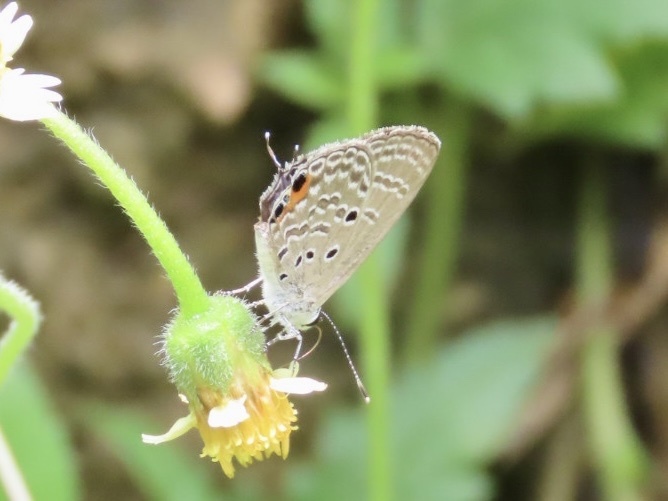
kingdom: Animalia
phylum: Arthropoda
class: Insecta
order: Lepidoptera
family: Lycaenidae
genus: Luthrodes
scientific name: Luthrodes pandava
